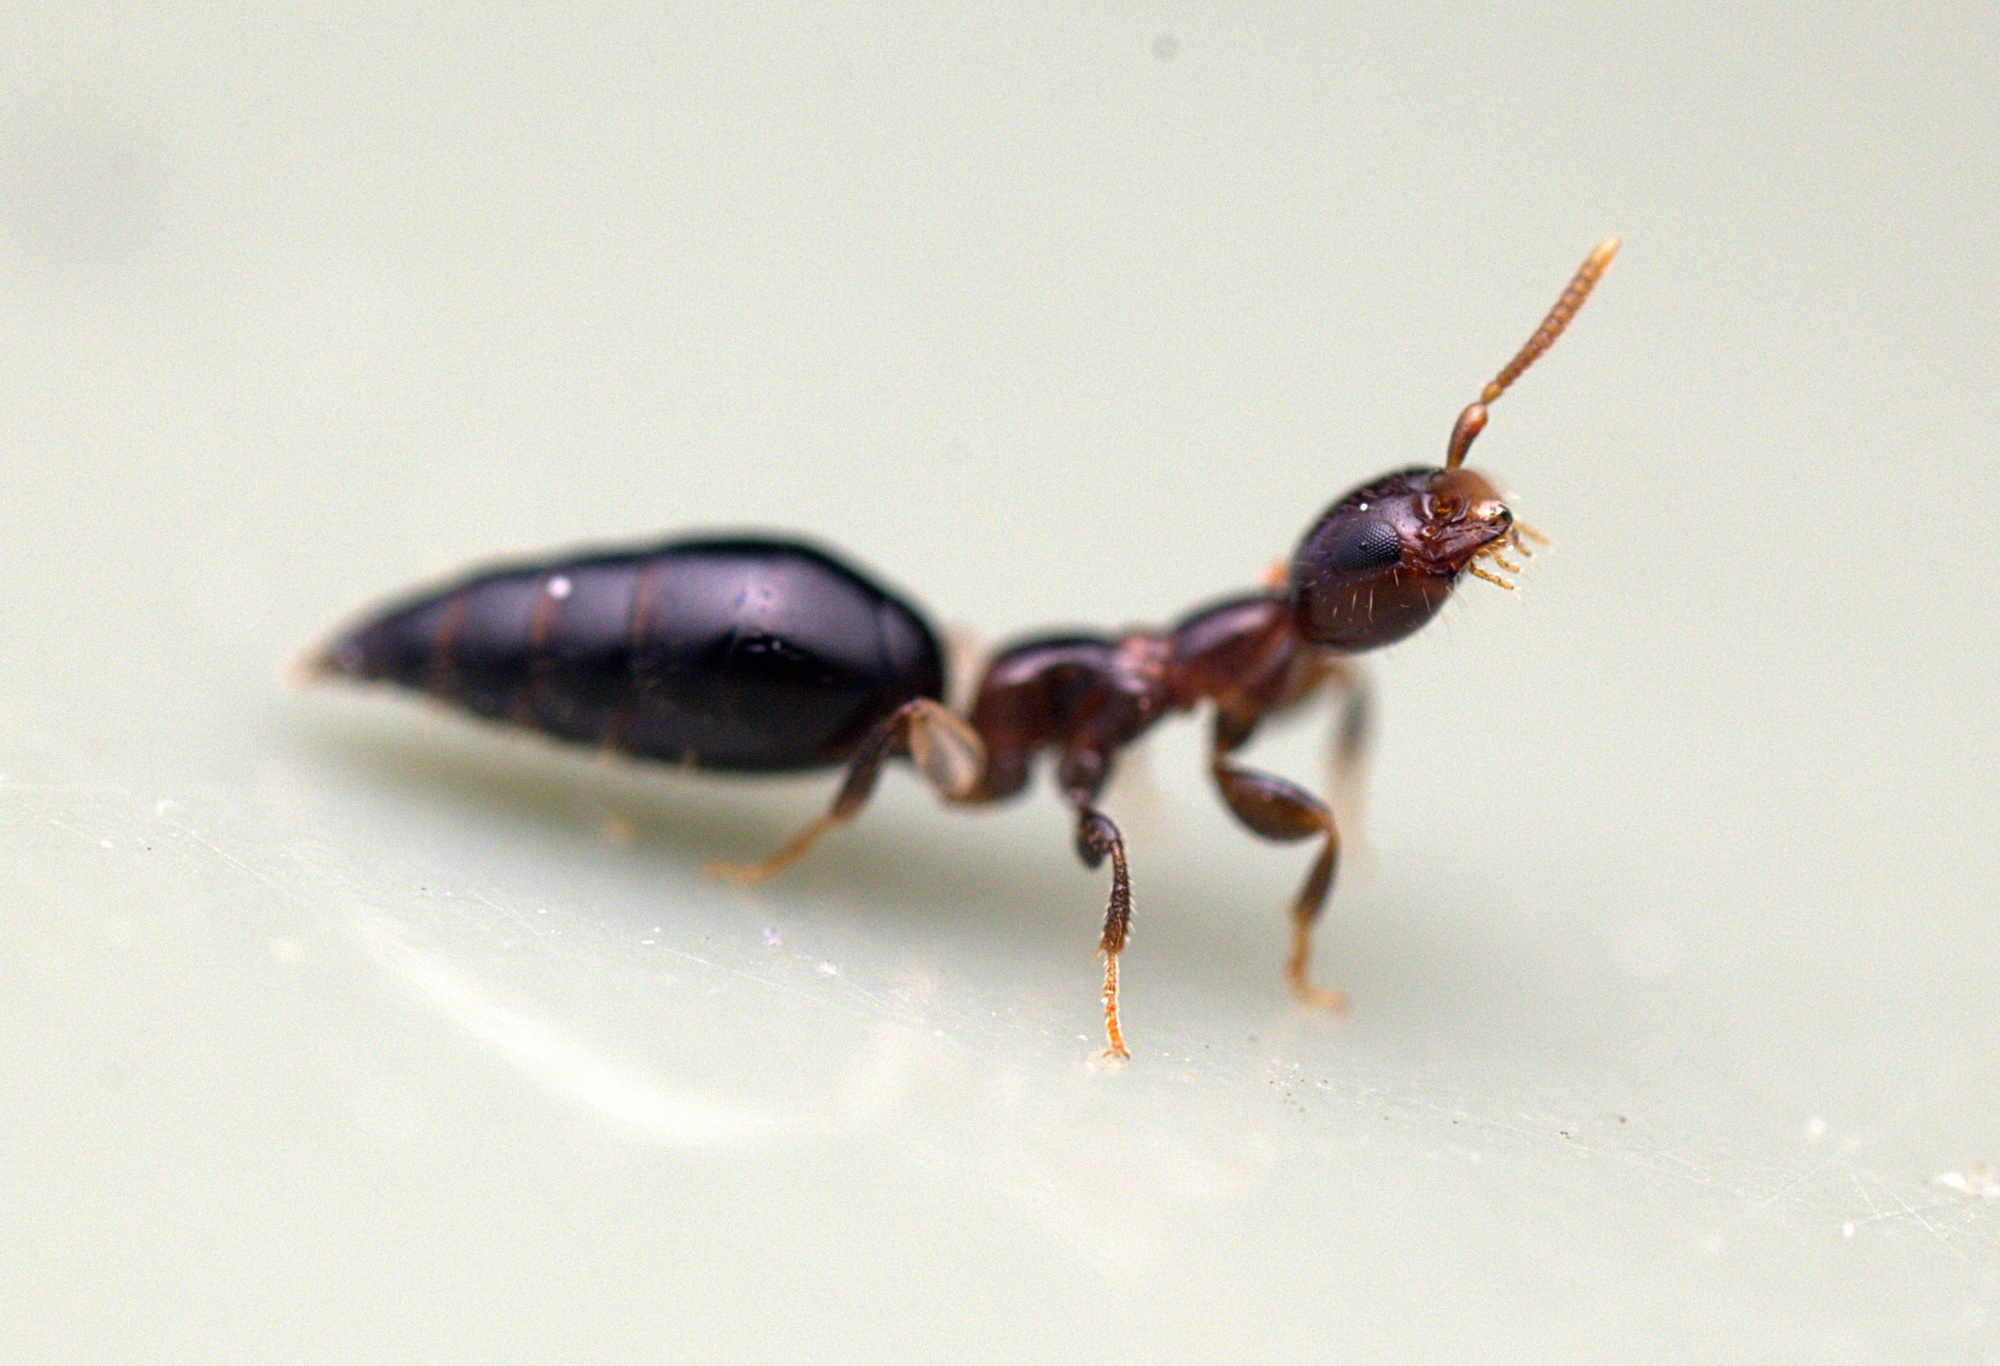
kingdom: Animalia
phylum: Arthropoda
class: Insecta
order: Hymenoptera
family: Bethylidae
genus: Sclerodermus
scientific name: Sclerodermus niveifemur
